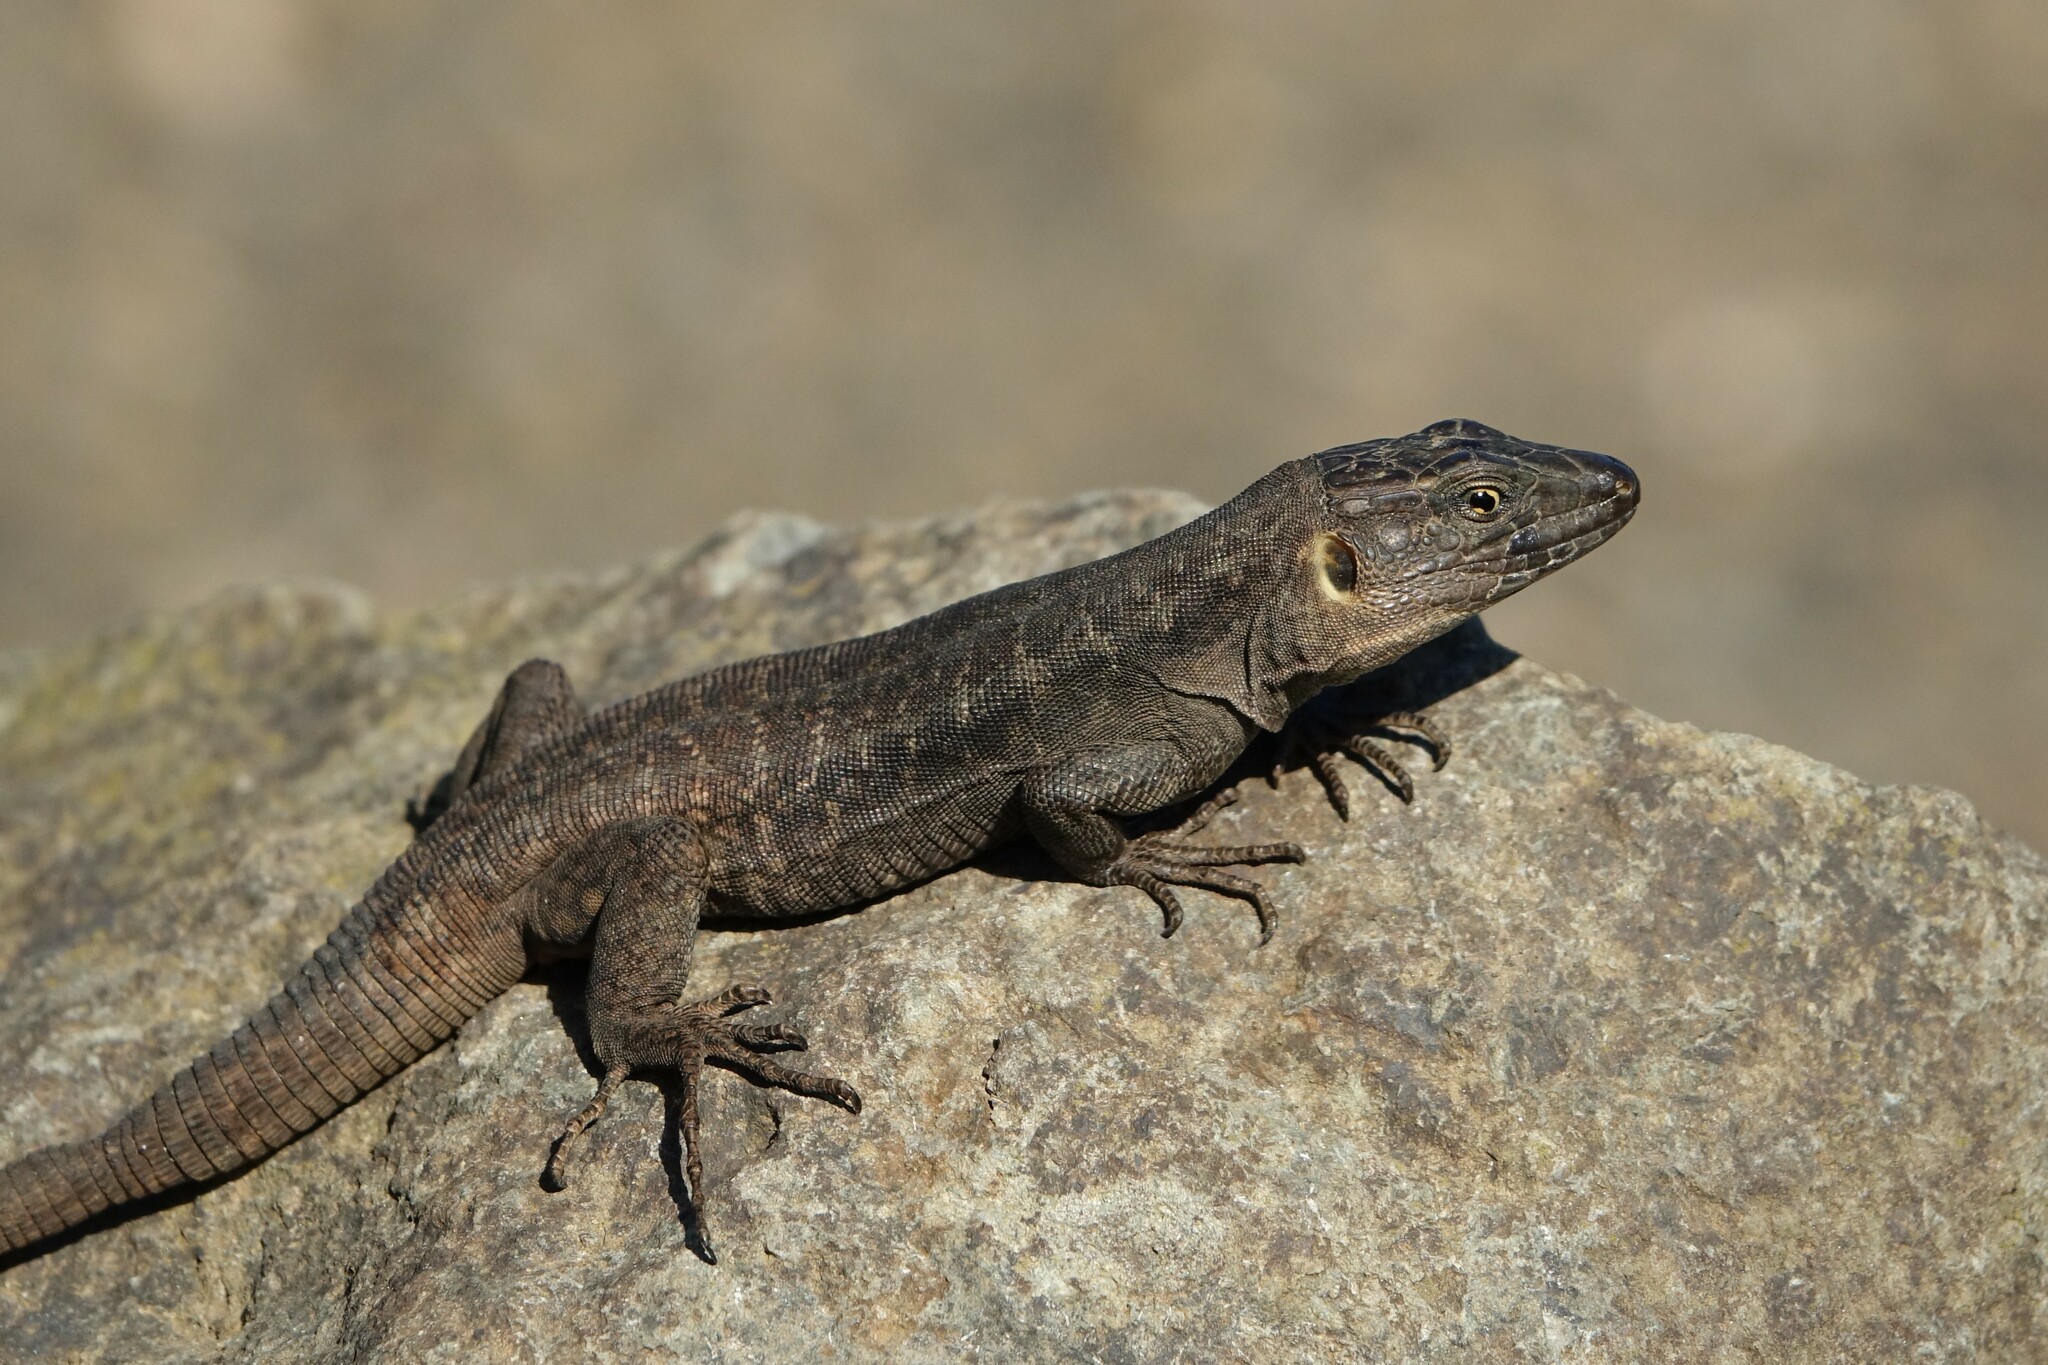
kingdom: Animalia
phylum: Chordata
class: Squamata
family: Lacertidae
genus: Gallotia
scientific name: Gallotia stehlini
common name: Gran canaria giant lizard
